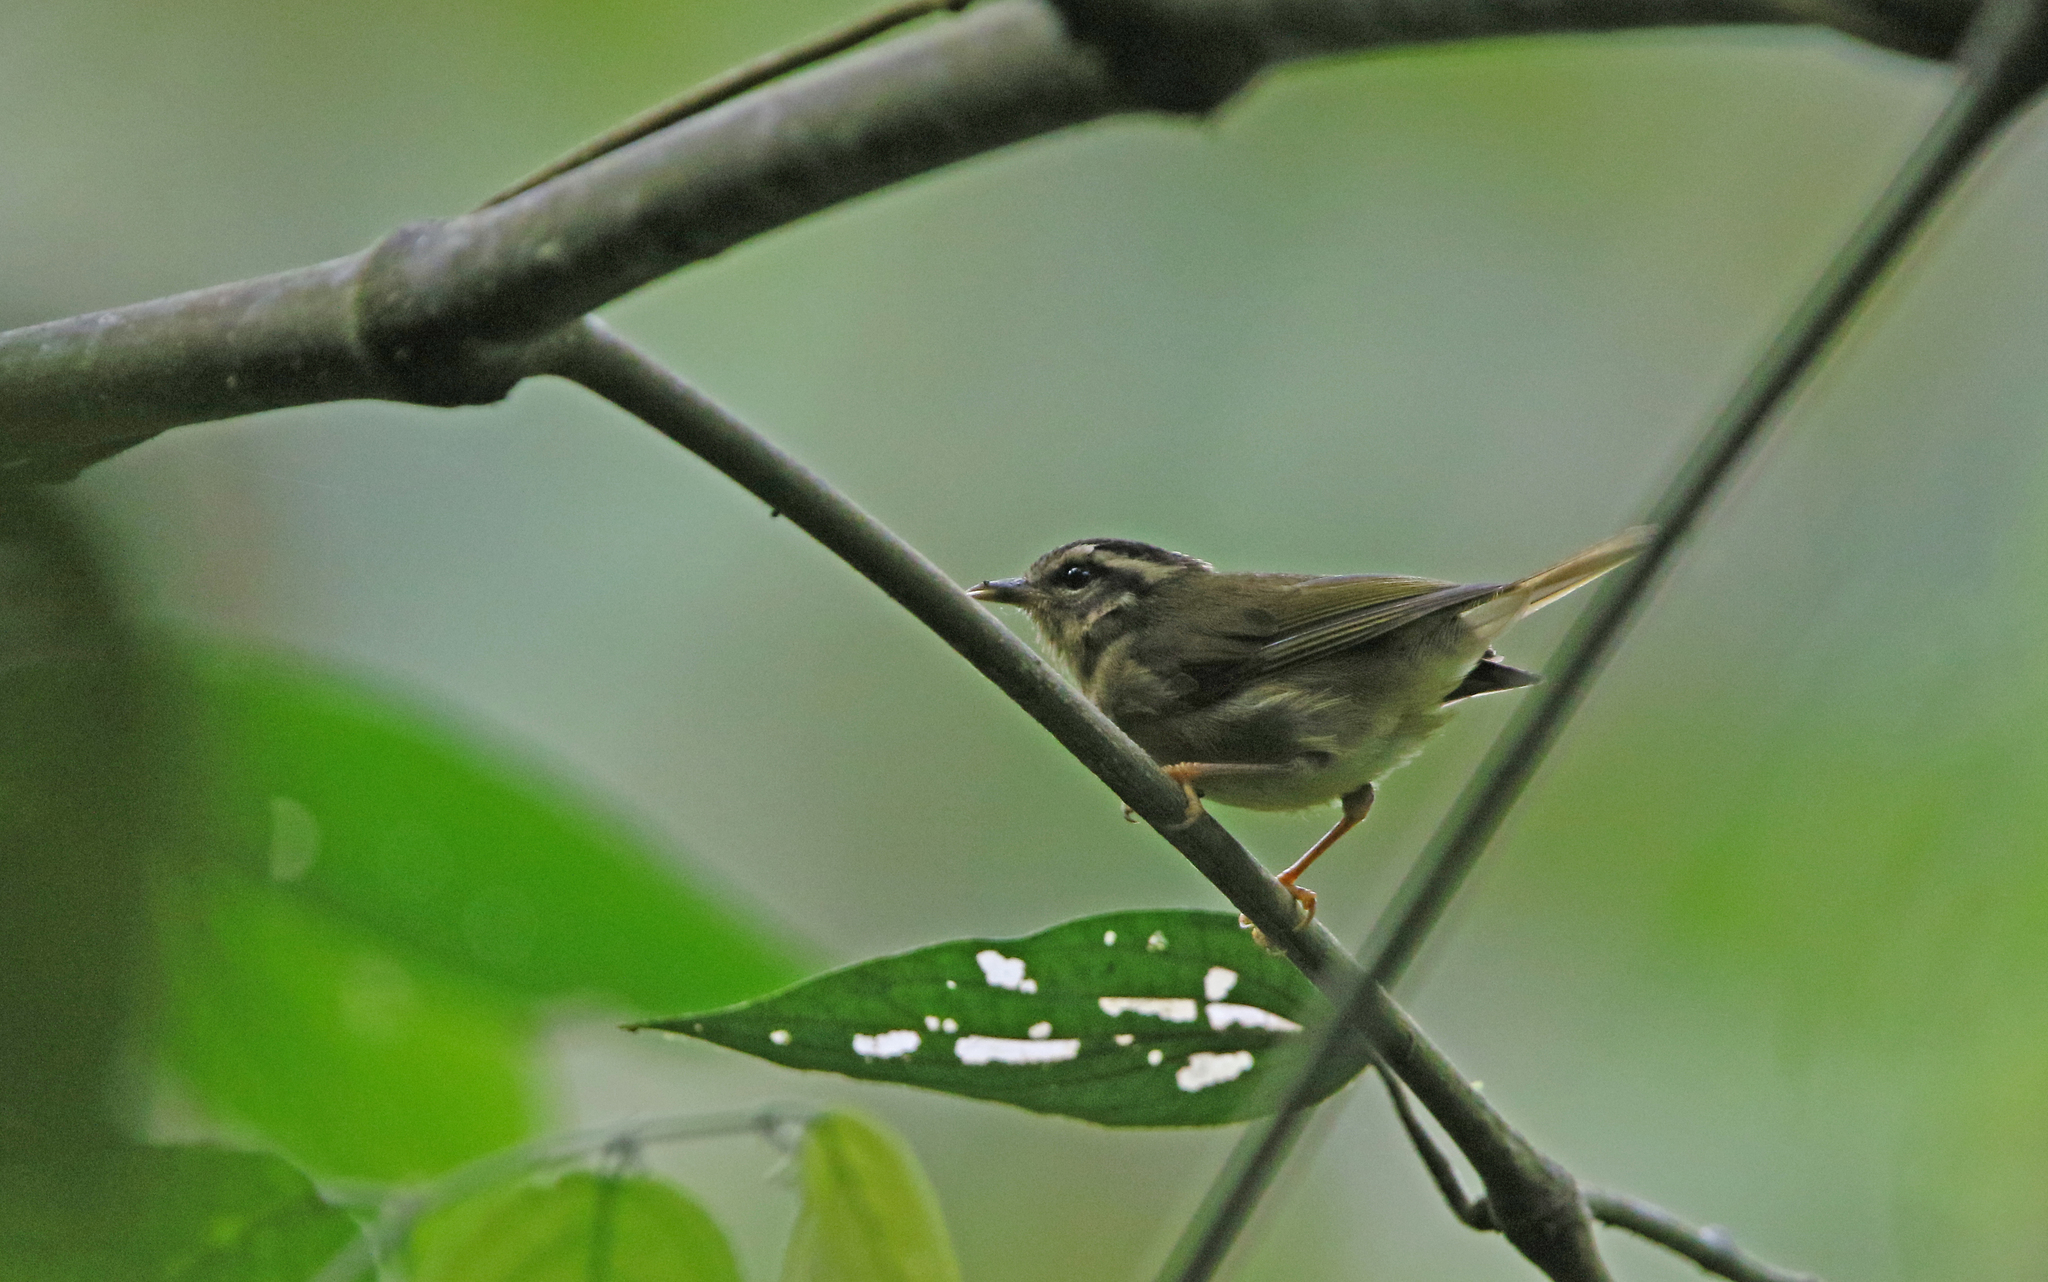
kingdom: Animalia
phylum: Chordata
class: Aves
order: Passeriformes
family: Parulidae
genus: Basileuterus
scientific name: Basileuterus tristriatus
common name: Three-striped warbler
